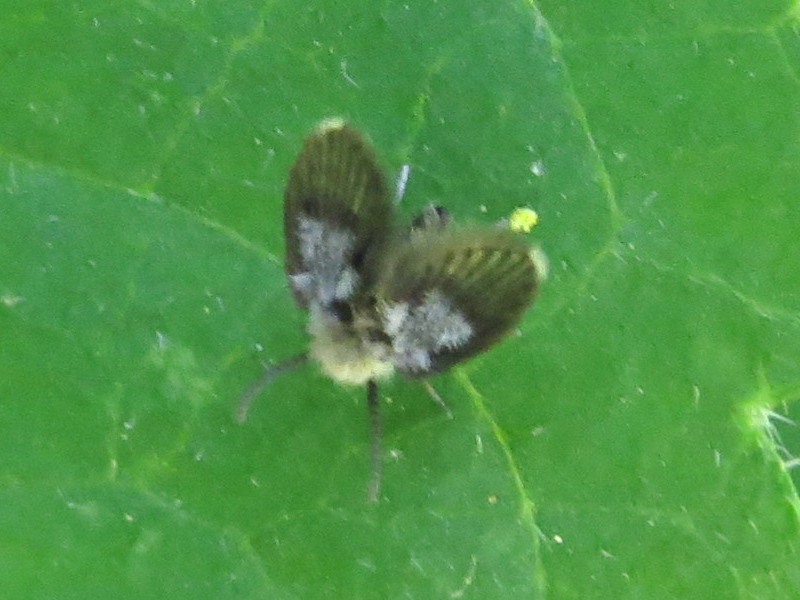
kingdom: Animalia
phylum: Arthropoda
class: Insecta
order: Diptera
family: Psychodidae
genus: Lepiseodina
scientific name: Lepiseodina
